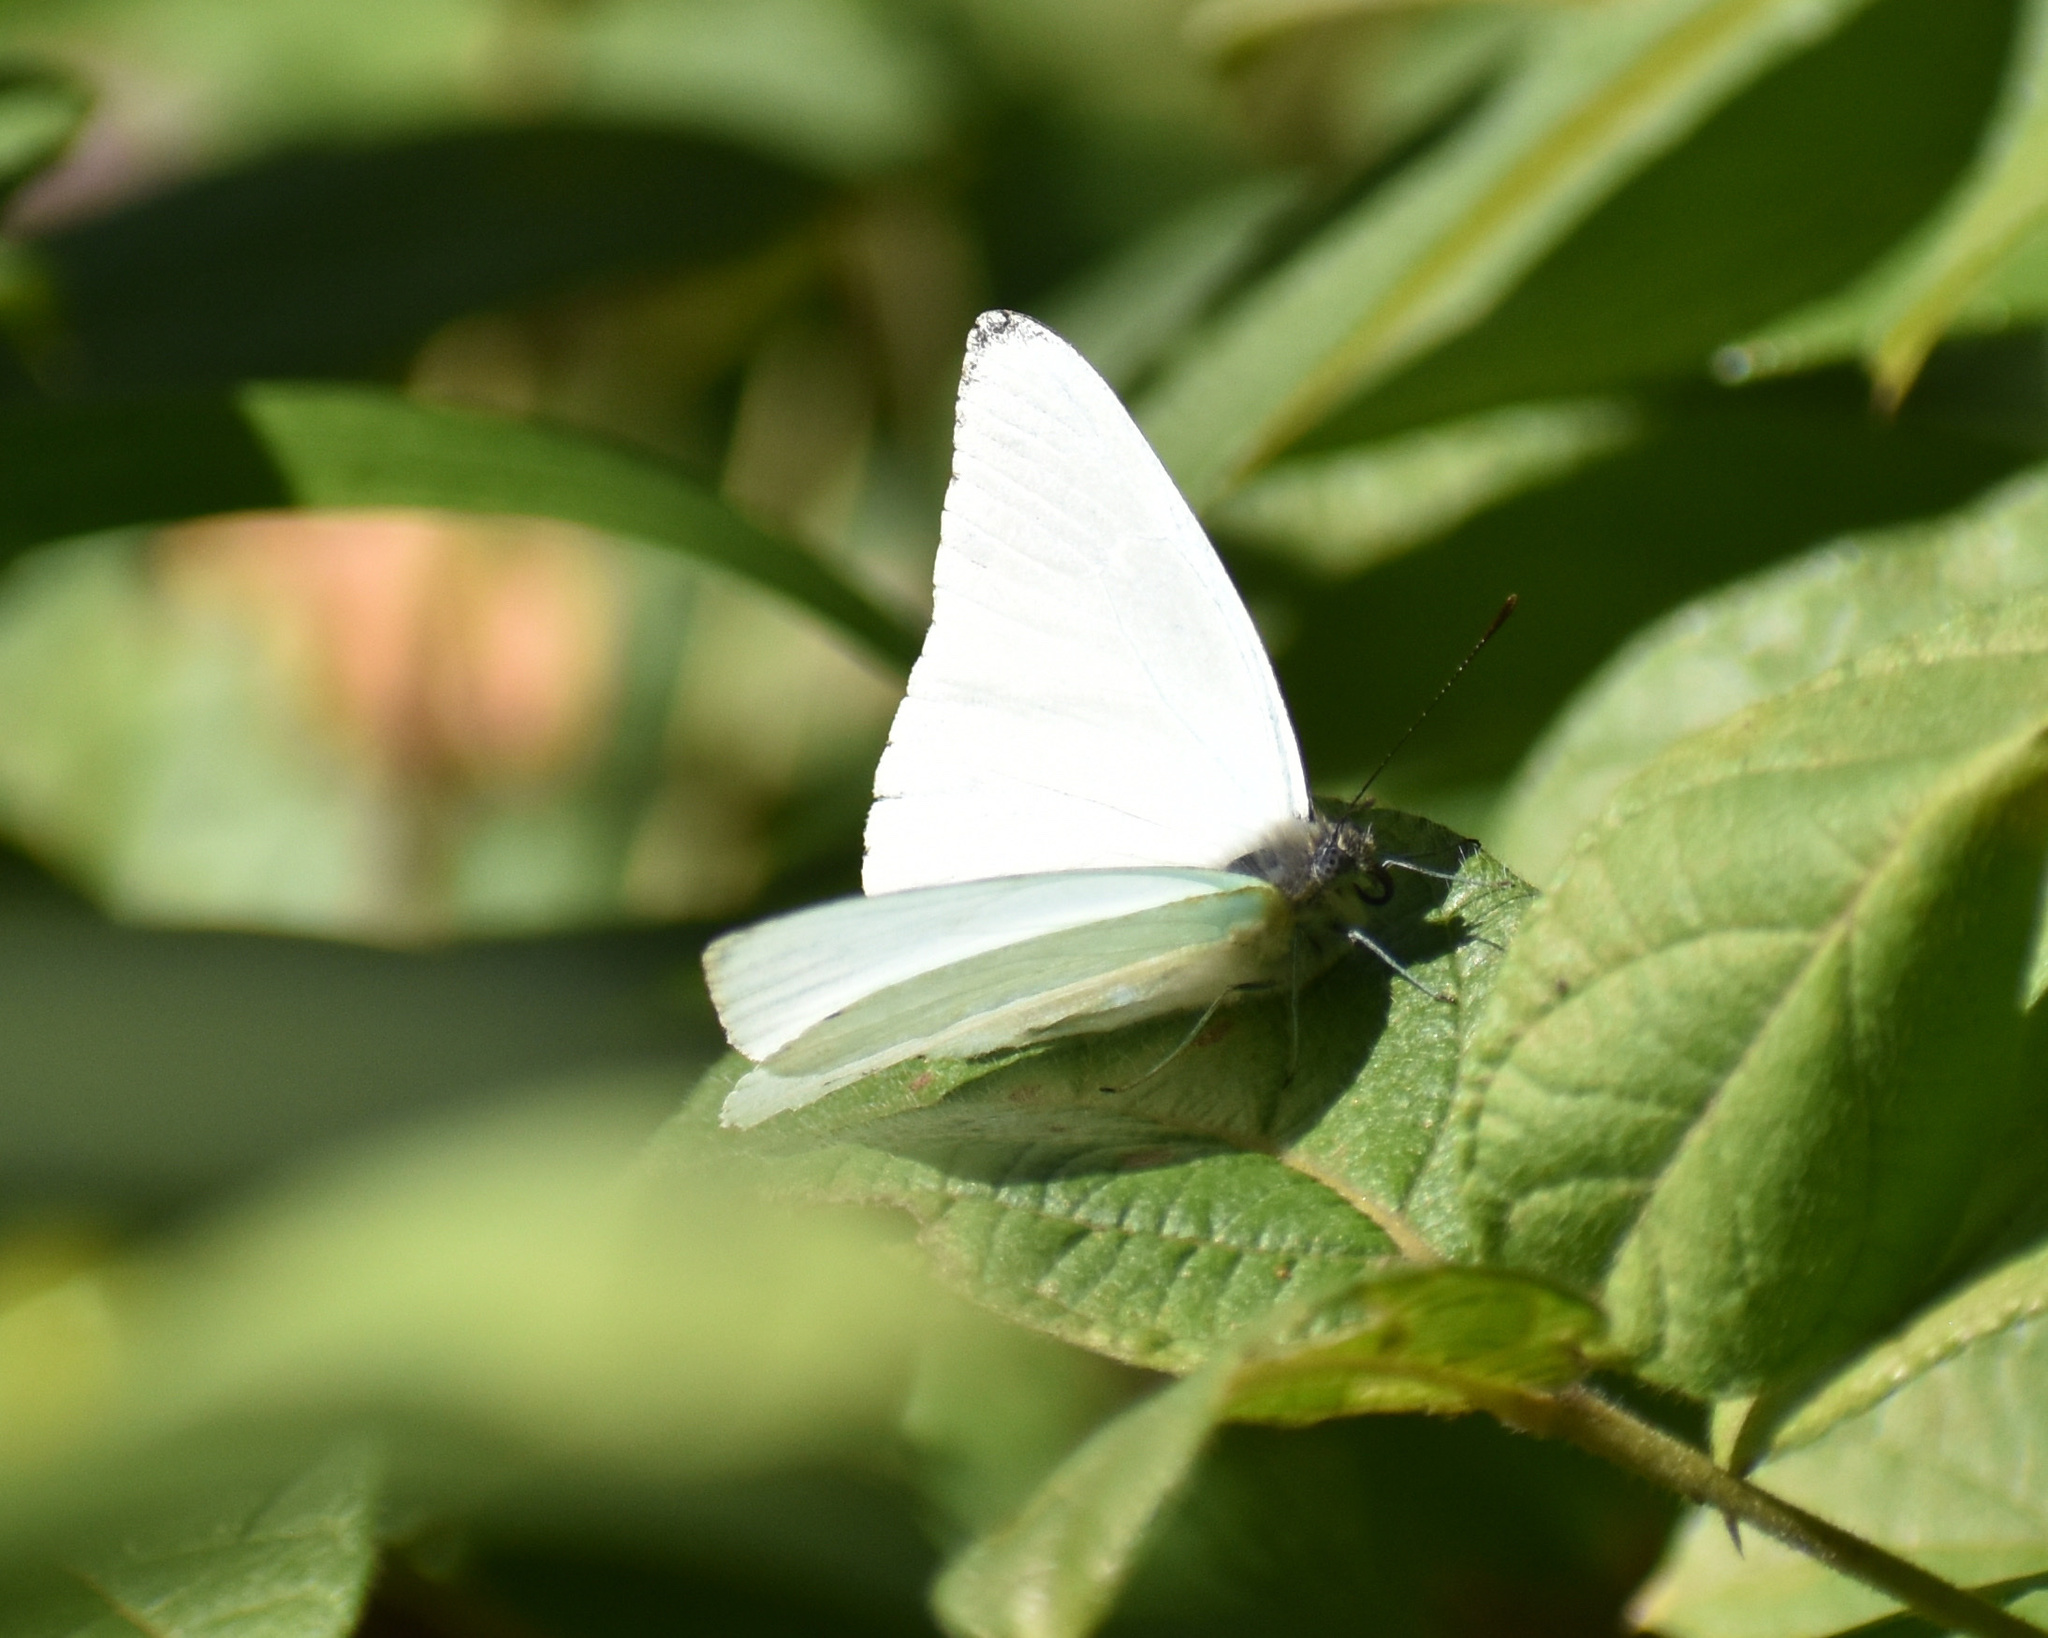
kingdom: Animalia
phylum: Arthropoda
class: Insecta
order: Lepidoptera
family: Pieridae
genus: Dixeia
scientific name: Dixeia pigea
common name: Ant-heap small white
